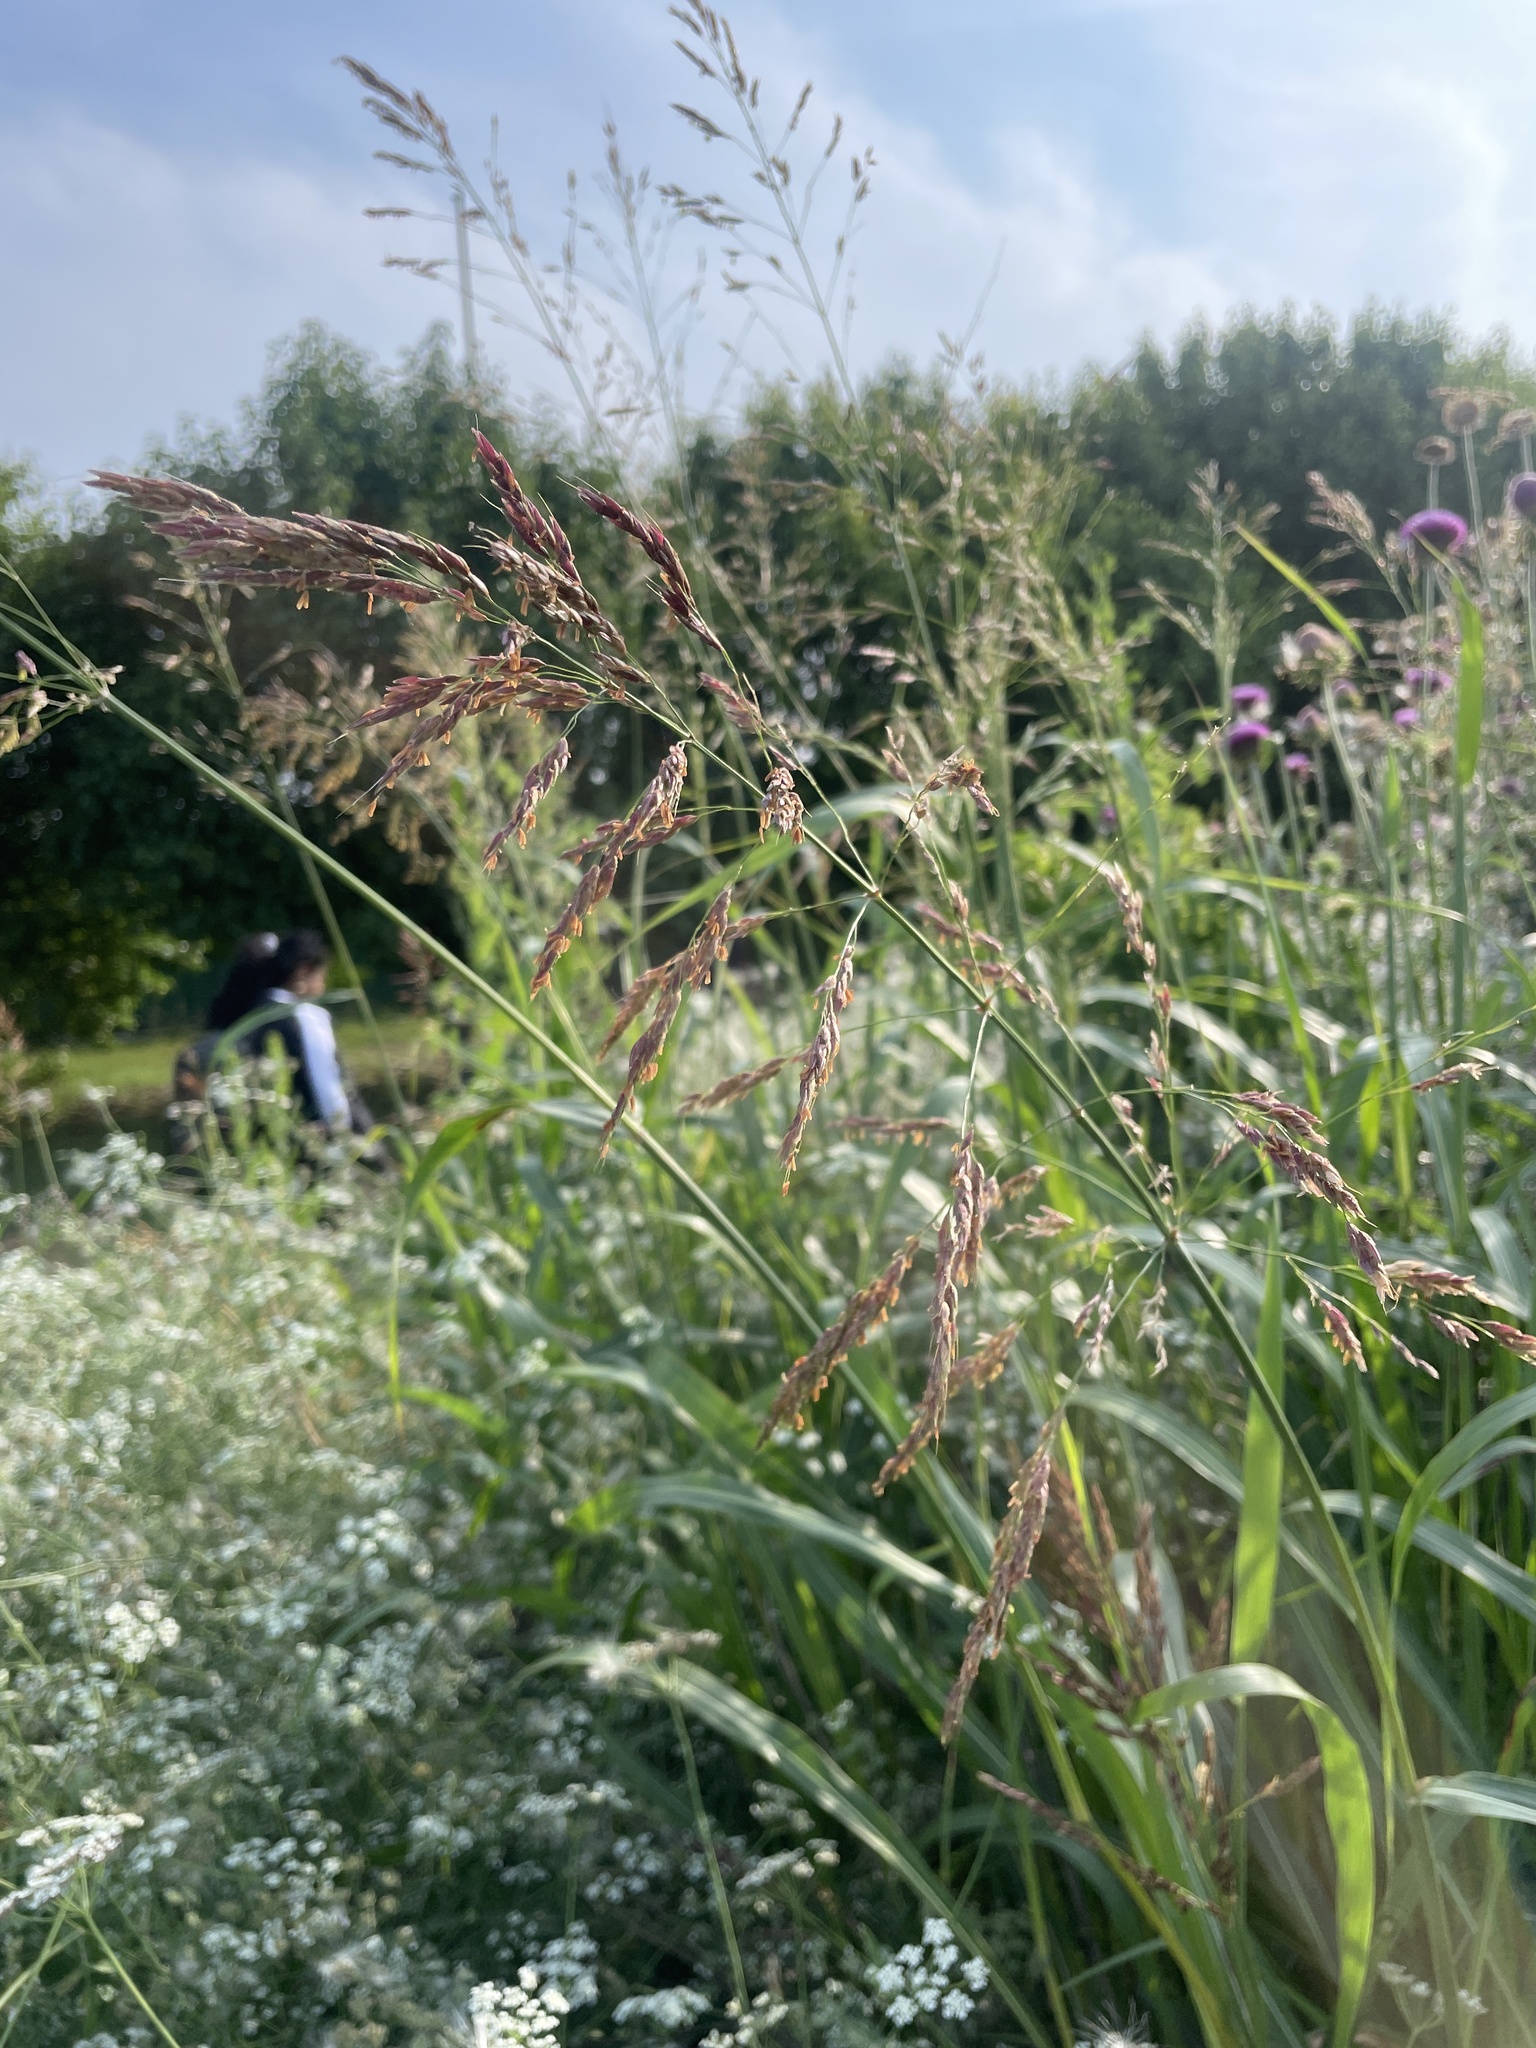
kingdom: Plantae
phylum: Tracheophyta
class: Liliopsida
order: Poales
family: Poaceae
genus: Sorghum
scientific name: Sorghum halepense
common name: Johnson-grass
